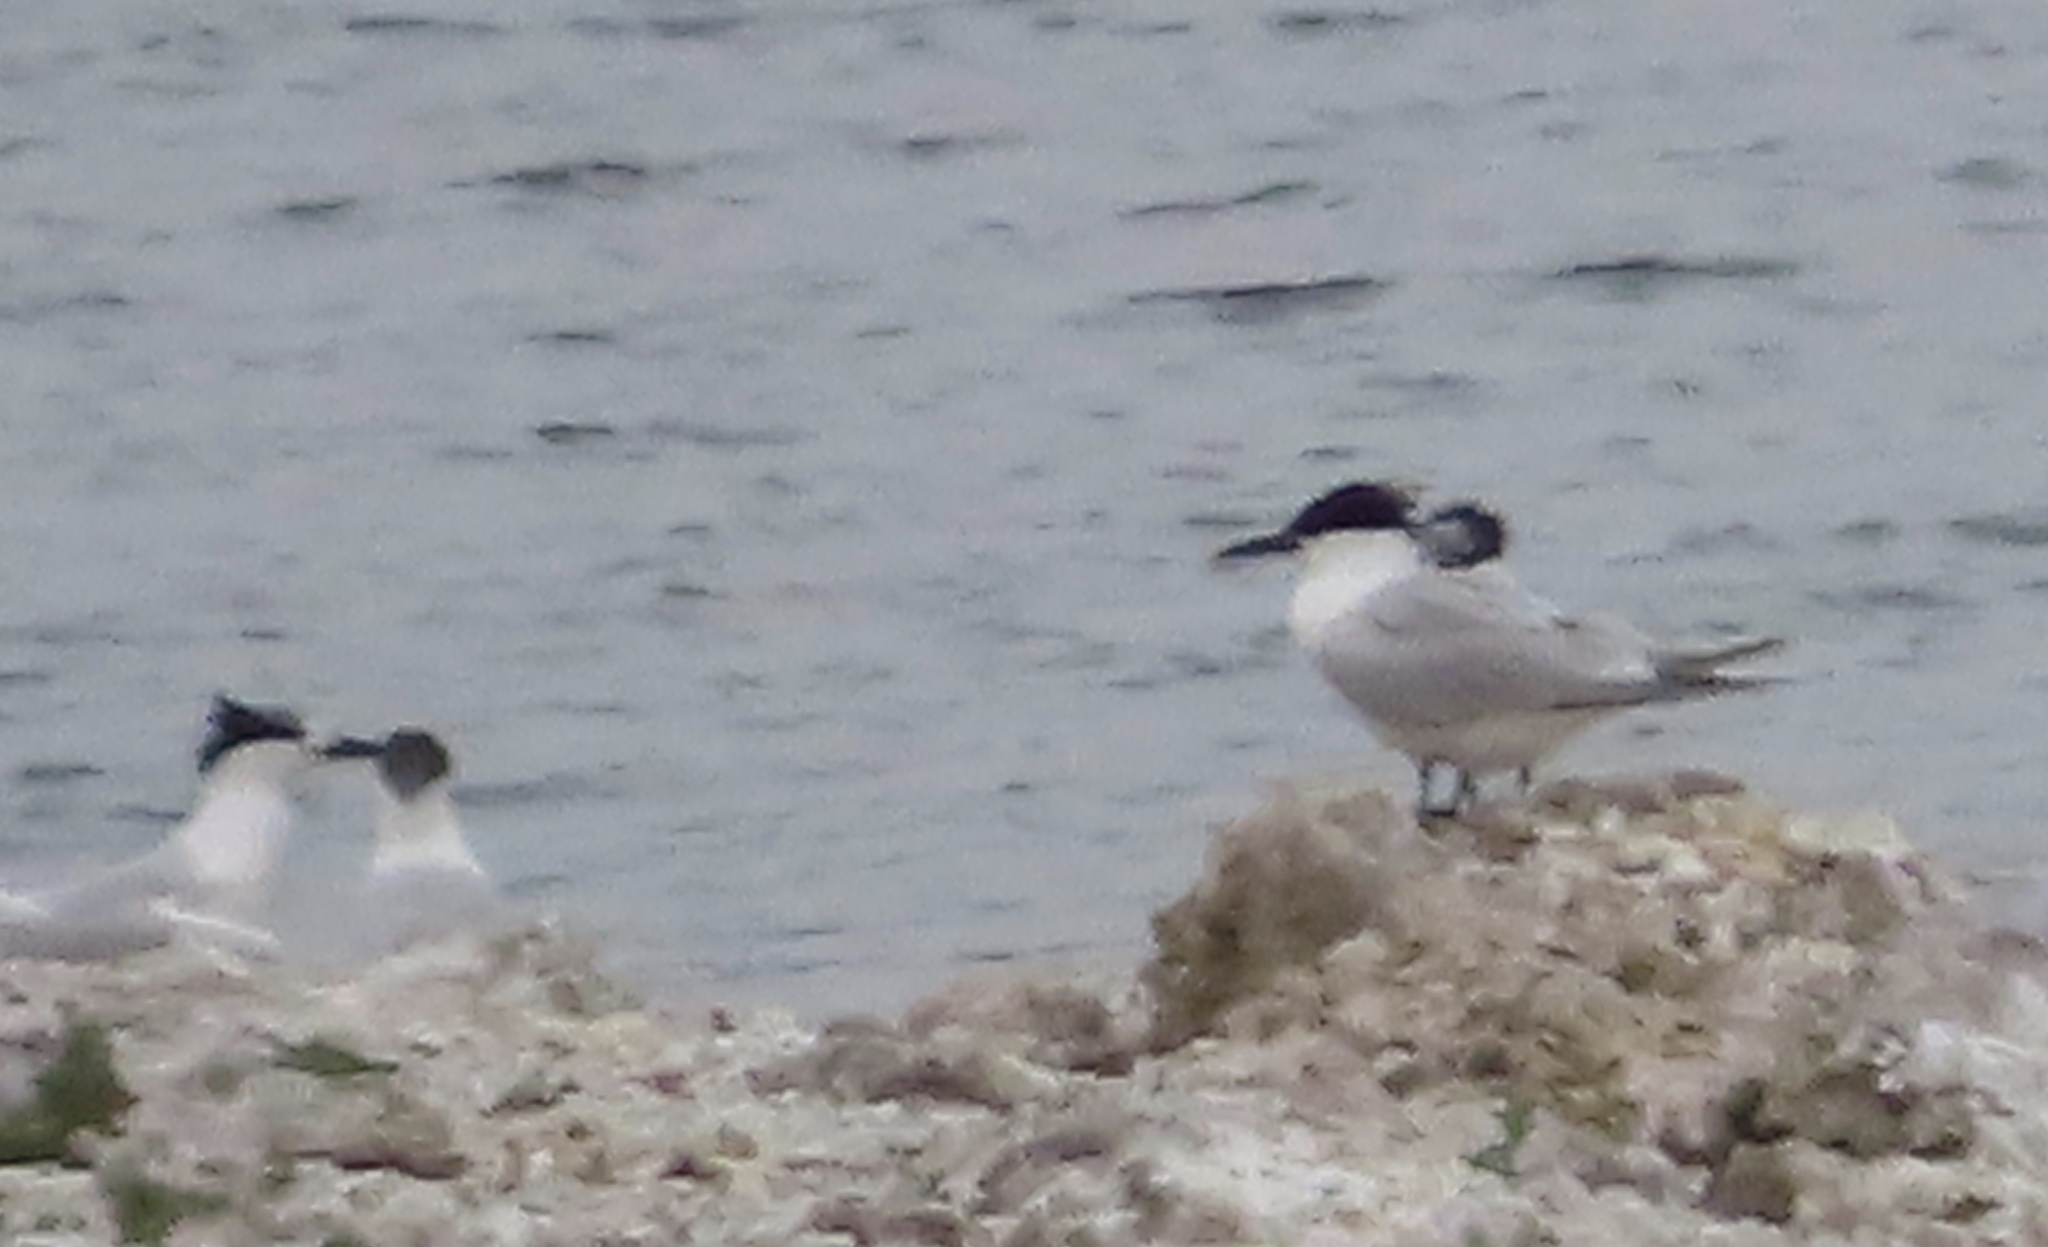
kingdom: Animalia
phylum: Chordata
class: Aves
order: Charadriiformes
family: Laridae
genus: Thalasseus
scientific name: Thalasseus sandvicensis
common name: Sandwich tern
